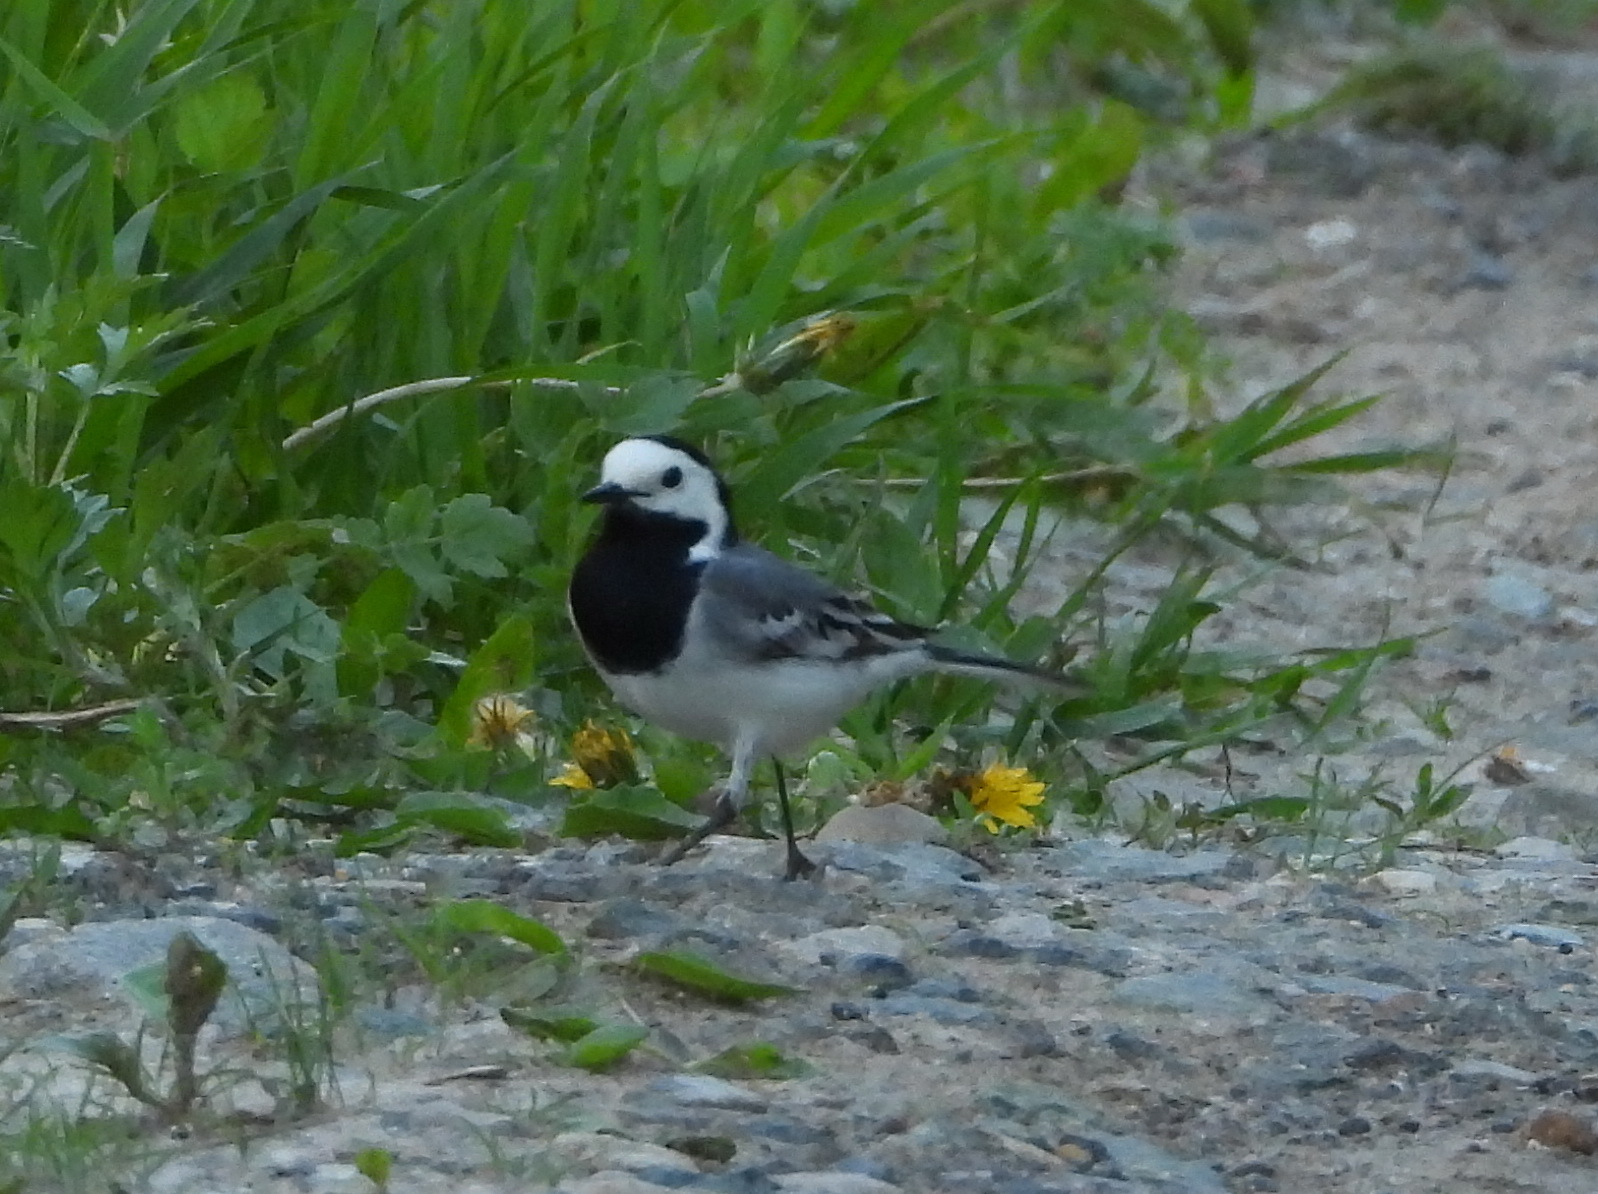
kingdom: Animalia
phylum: Chordata
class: Aves
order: Passeriformes
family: Motacillidae
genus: Motacilla
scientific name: Motacilla alba
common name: White wagtail
